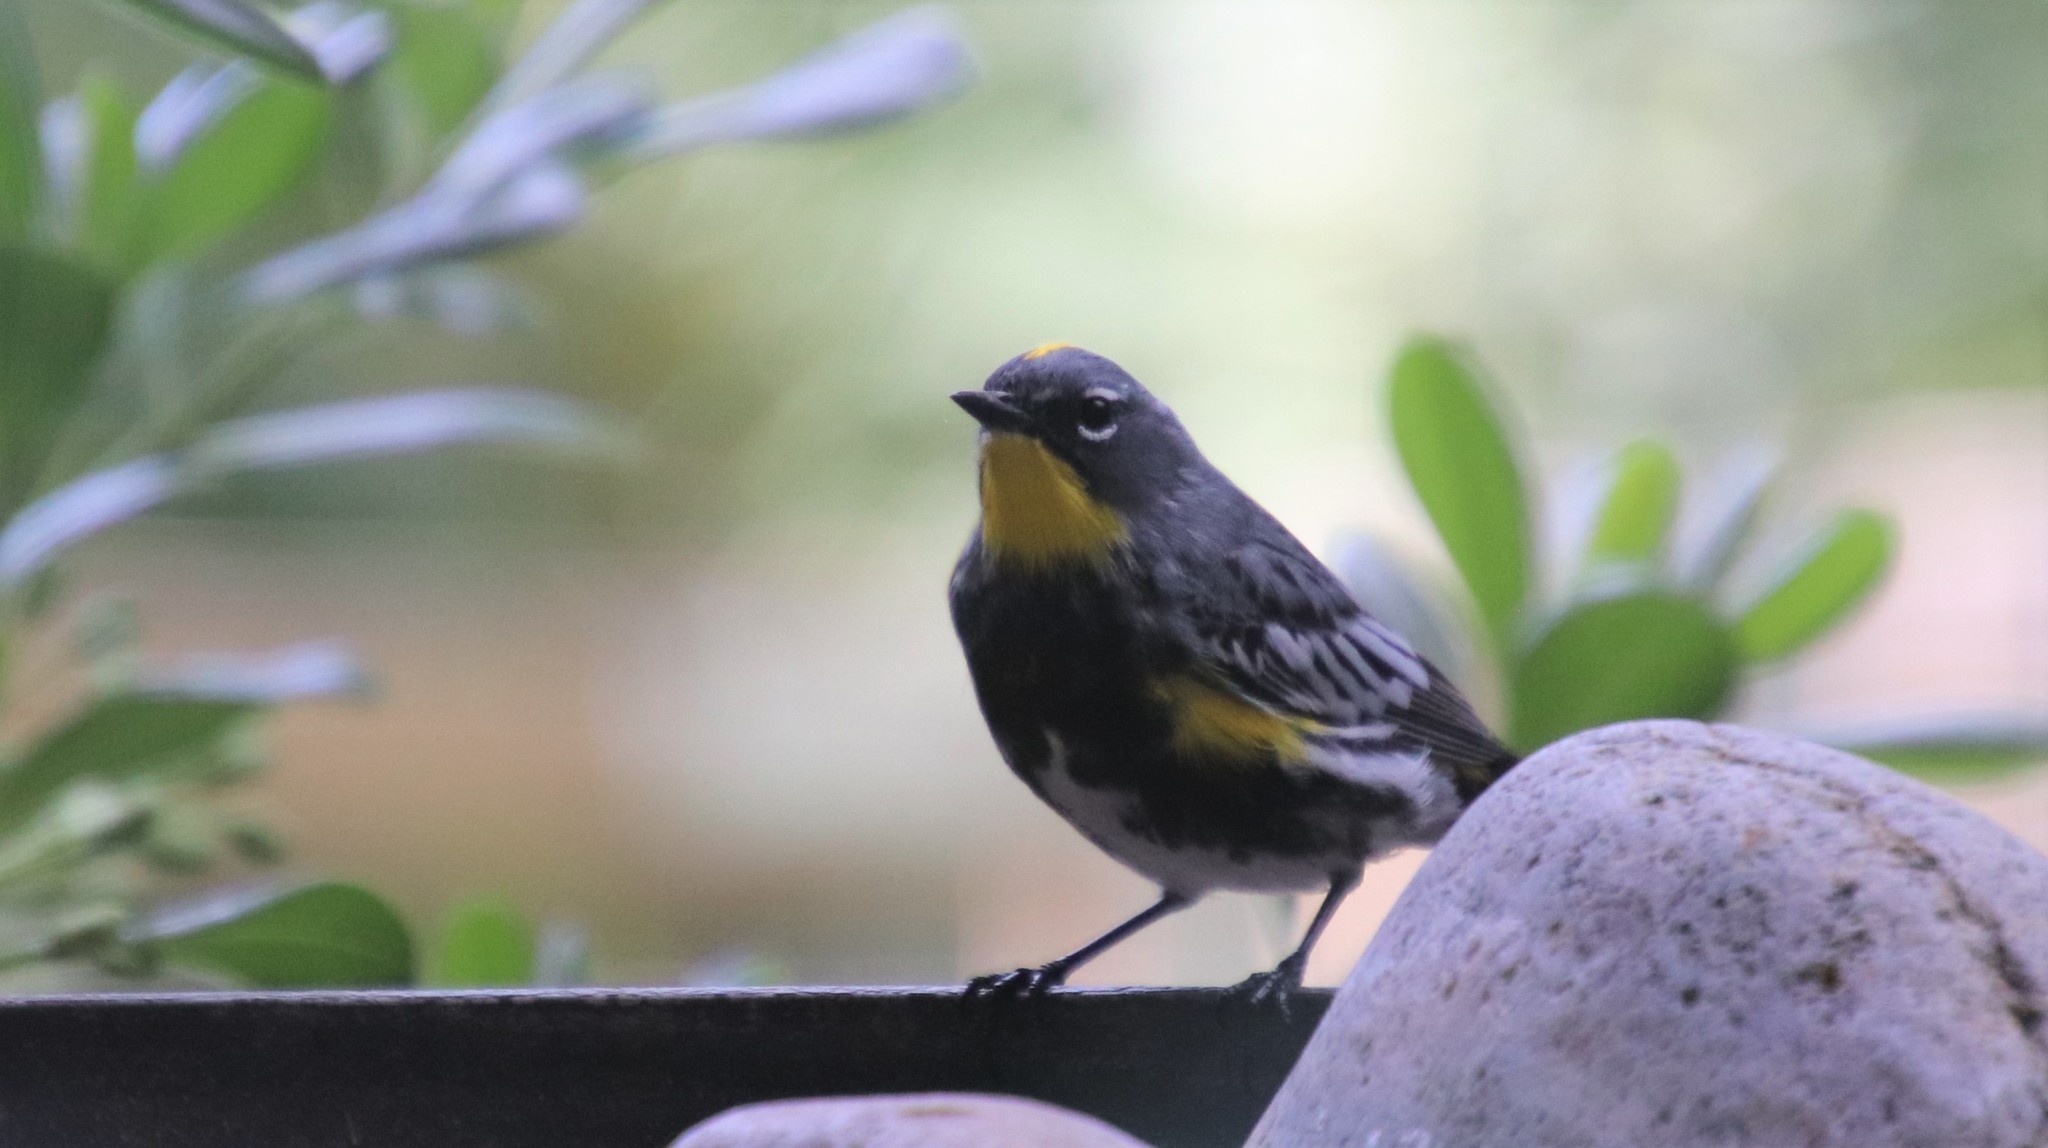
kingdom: Animalia
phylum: Chordata
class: Aves
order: Passeriformes
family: Parulidae
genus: Setophaga
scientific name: Setophaga auduboni
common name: Audubon's warbler
